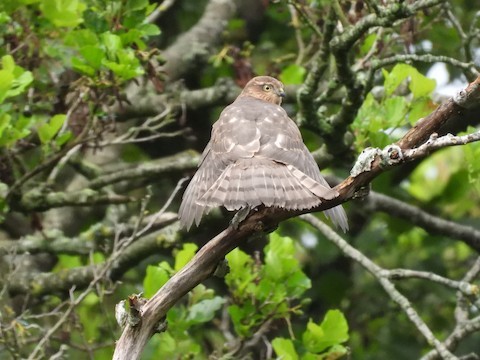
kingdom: Animalia
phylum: Chordata
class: Aves
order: Accipitriformes
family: Accipitridae
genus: Accipiter
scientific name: Accipiter nisus
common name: Eurasian sparrowhawk
